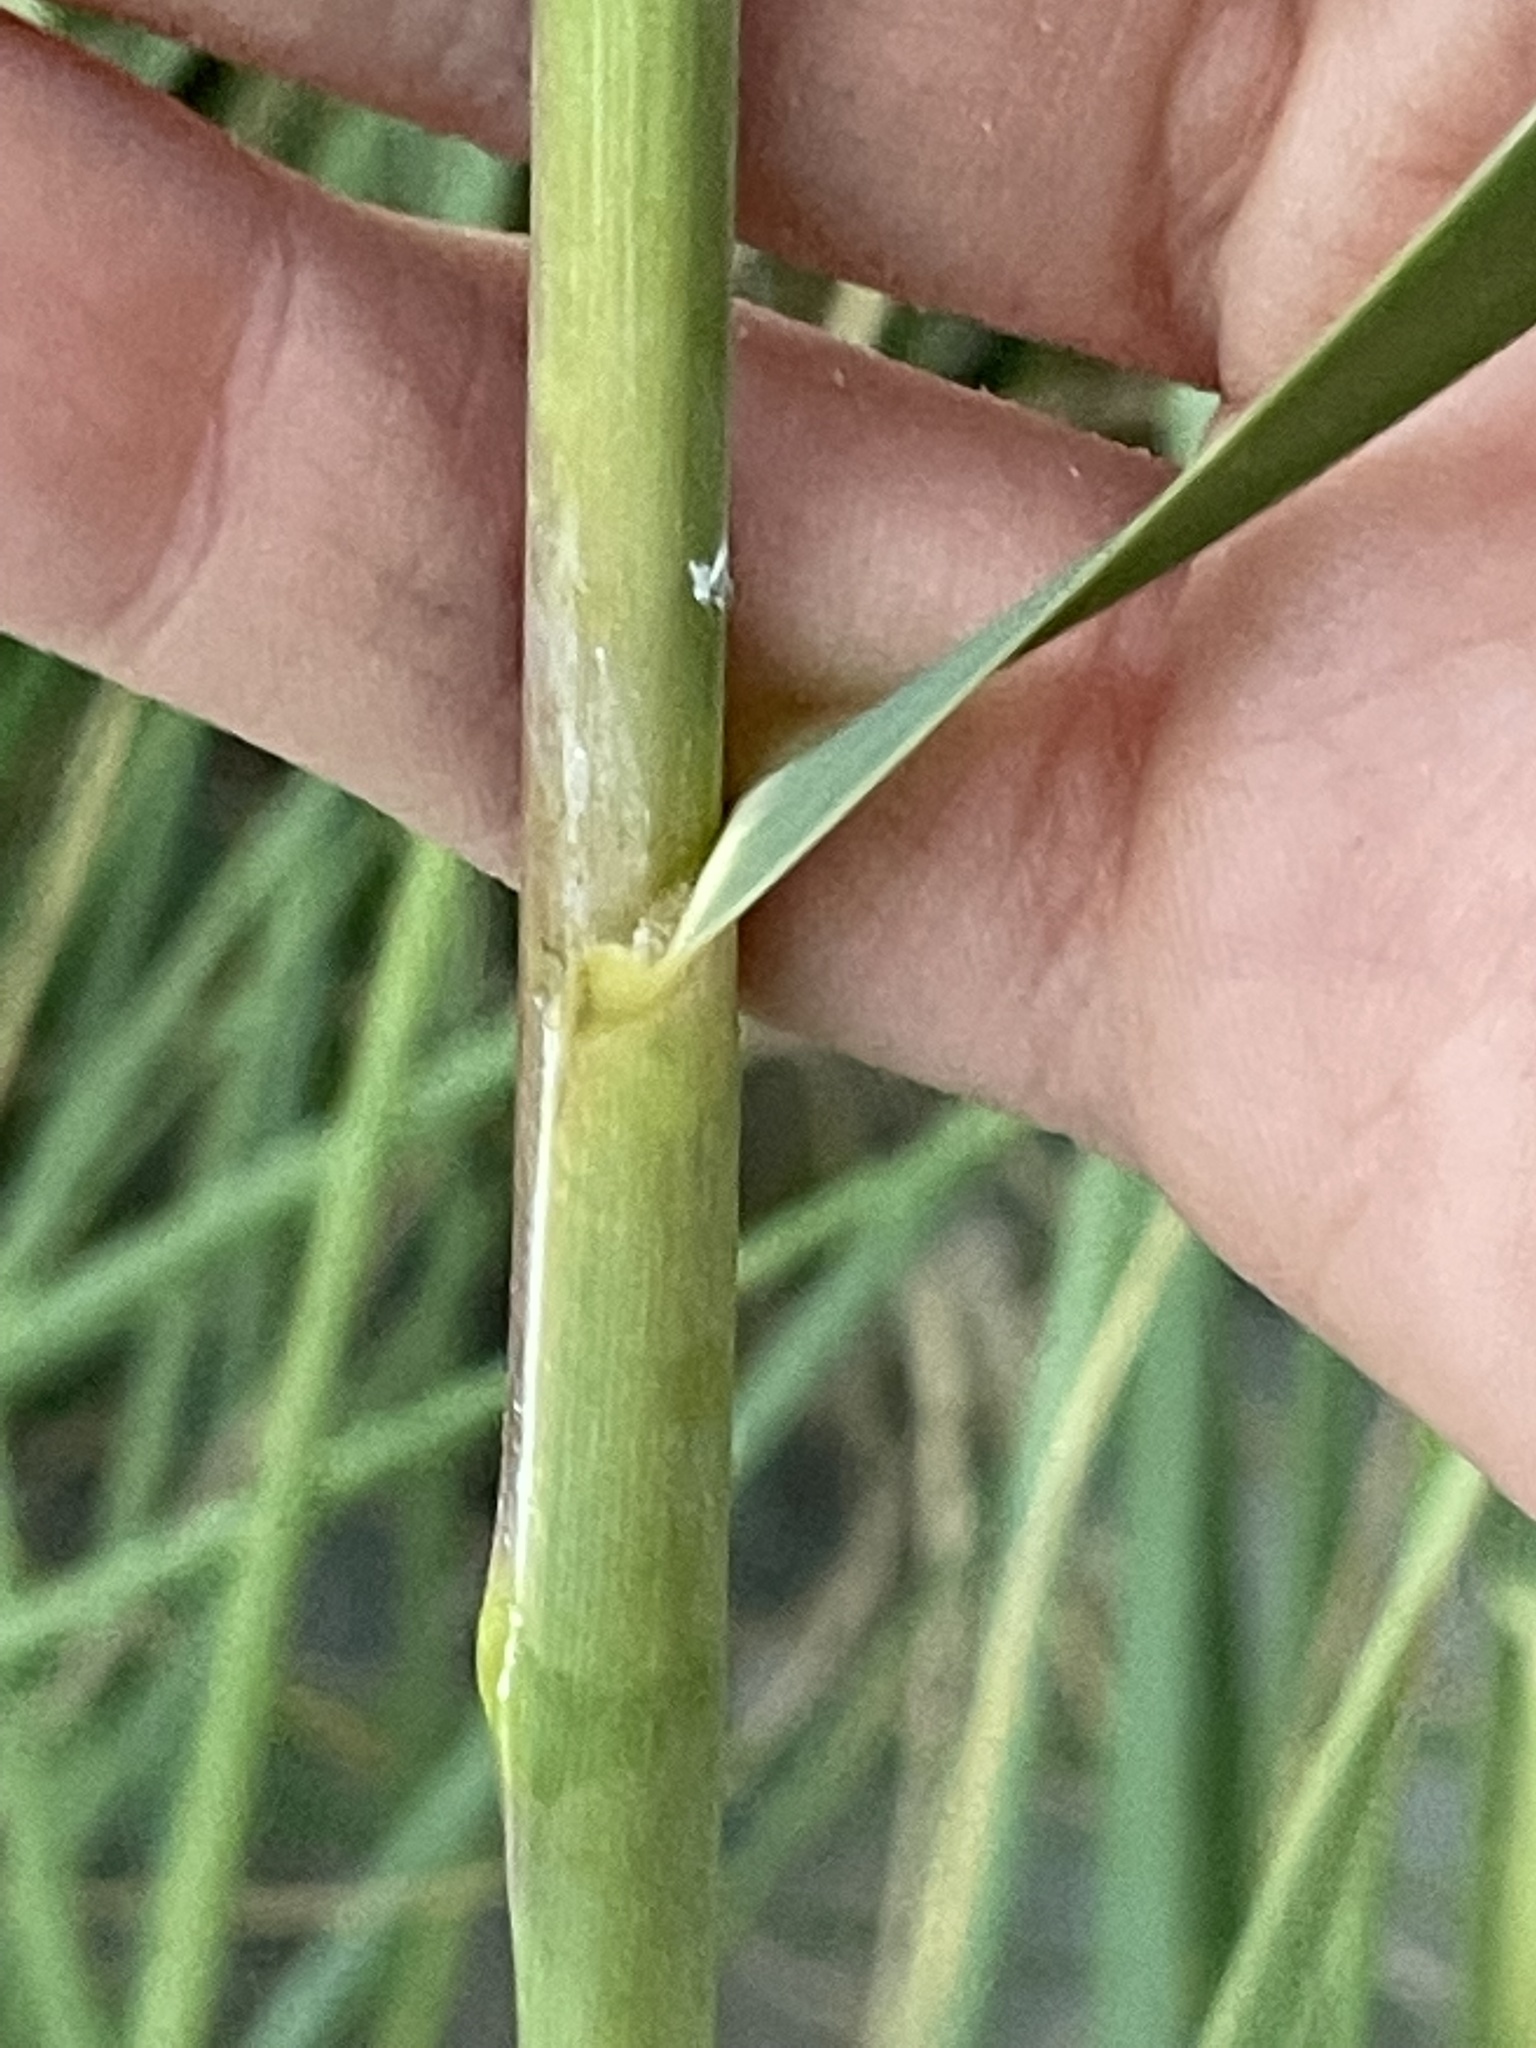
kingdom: Plantae
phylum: Tracheophyta
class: Liliopsida
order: Poales
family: Poaceae
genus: Uniola
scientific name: Uniola paniculata
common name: Seaside-oats
